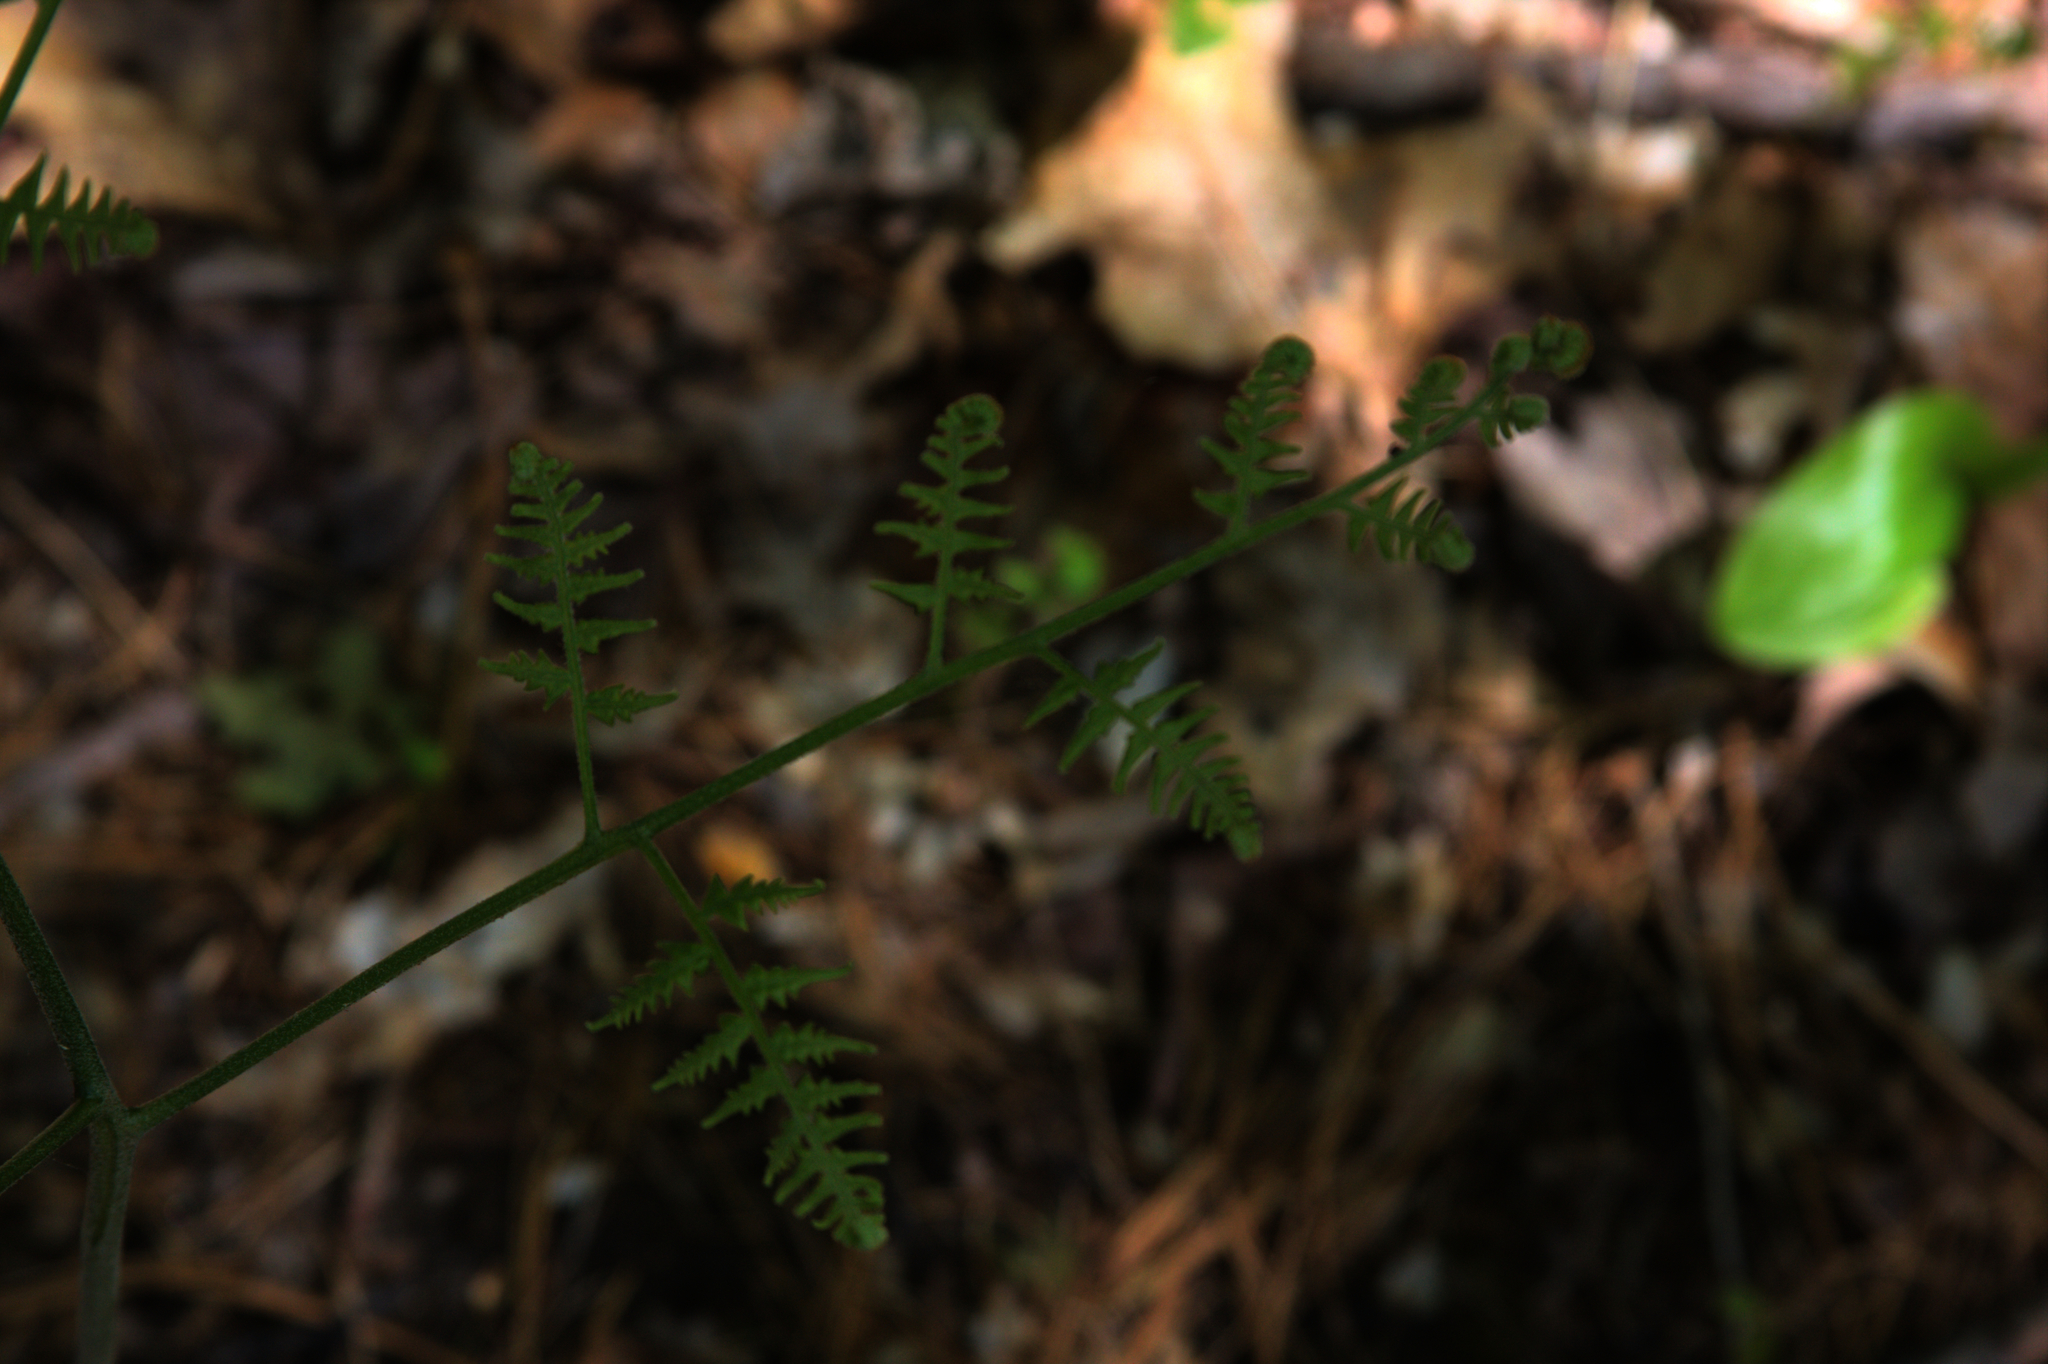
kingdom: Plantae
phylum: Tracheophyta
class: Polypodiopsida
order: Polypodiales
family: Dennstaedtiaceae
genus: Pteridium
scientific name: Pteridium aquilinum
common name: Bracken
